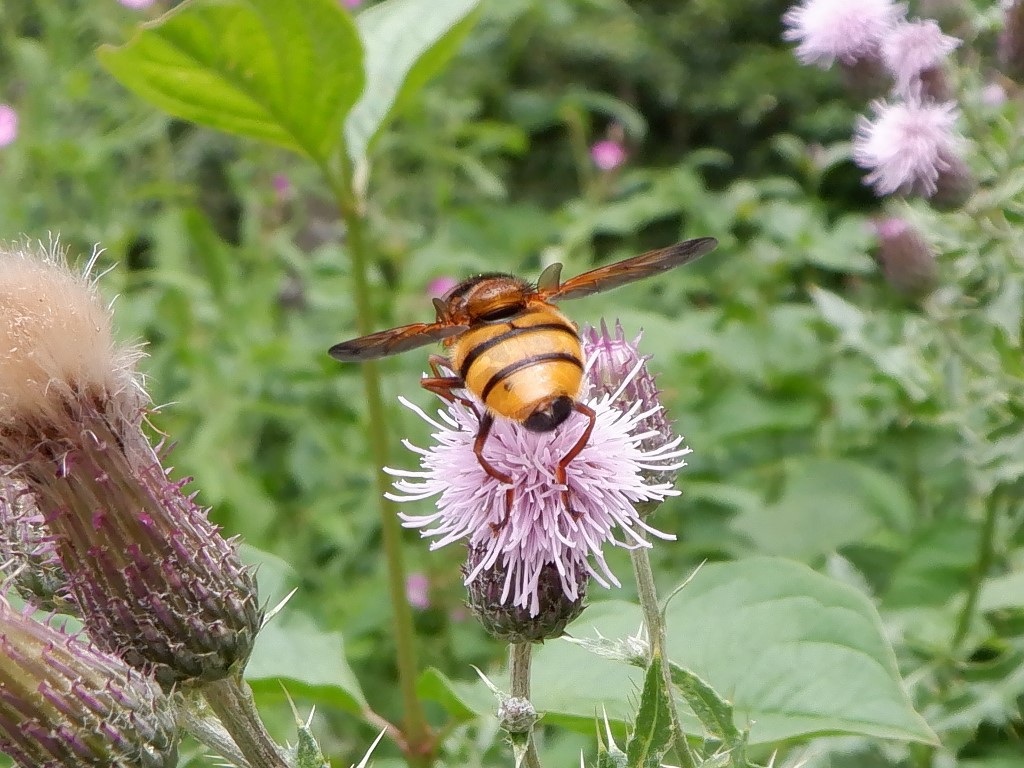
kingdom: Animalia
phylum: Arthropoda
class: Insecta
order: Diptera
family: Syrphidae
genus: Volucella
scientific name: Volucella inanis
